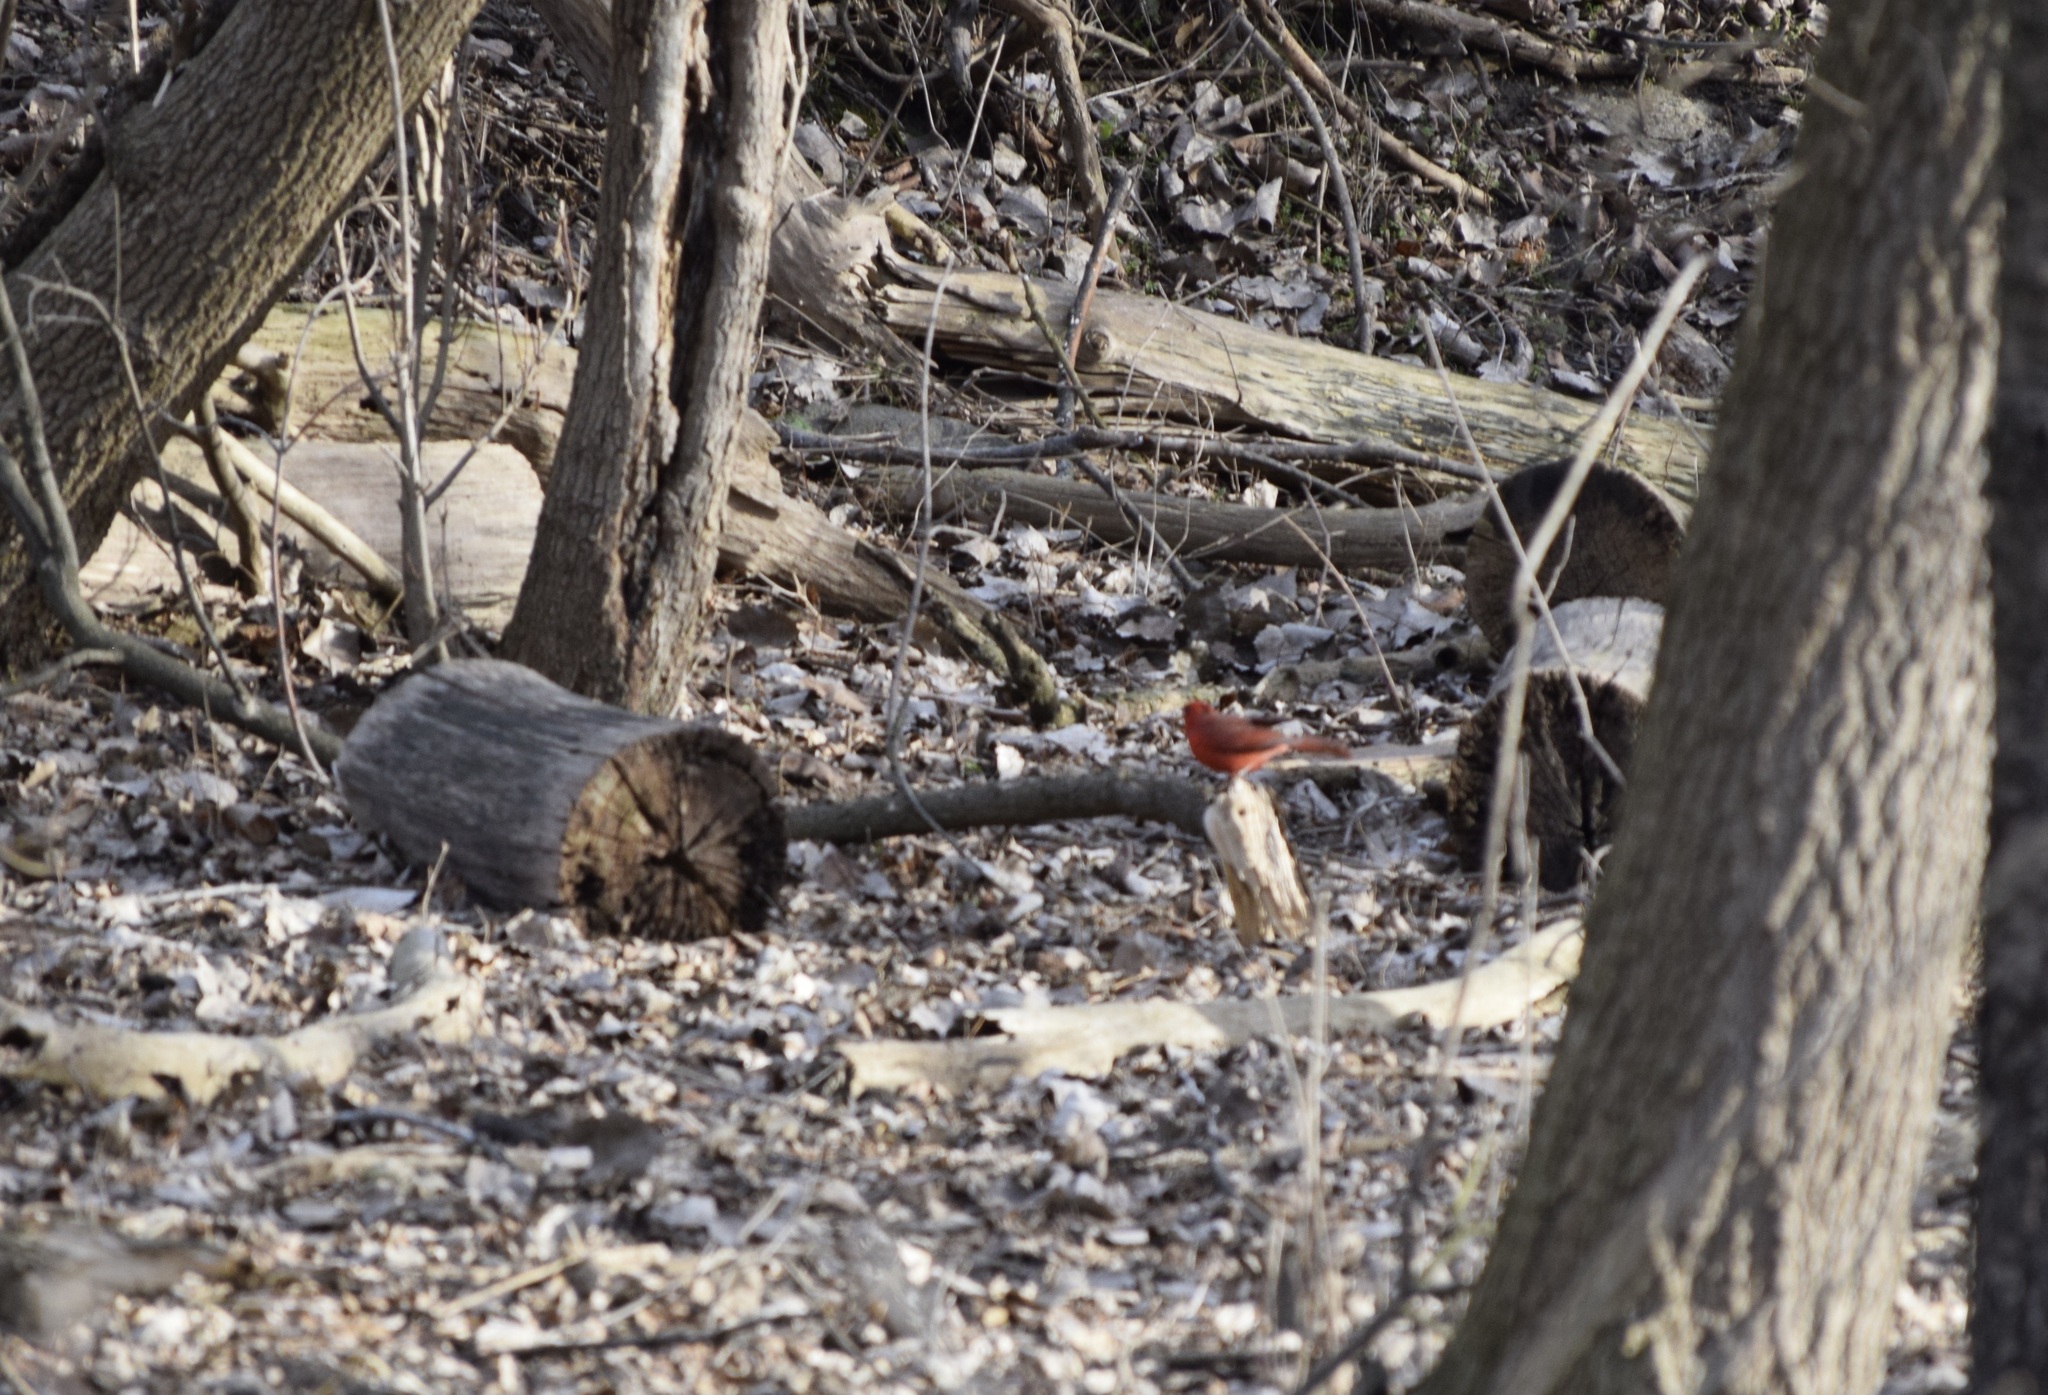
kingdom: Animalia
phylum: Chordata
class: Aves
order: Passeriformes
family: Cardinalidae
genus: Cardinalis
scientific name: Cardinalis cardinalis
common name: Northern cardinal
